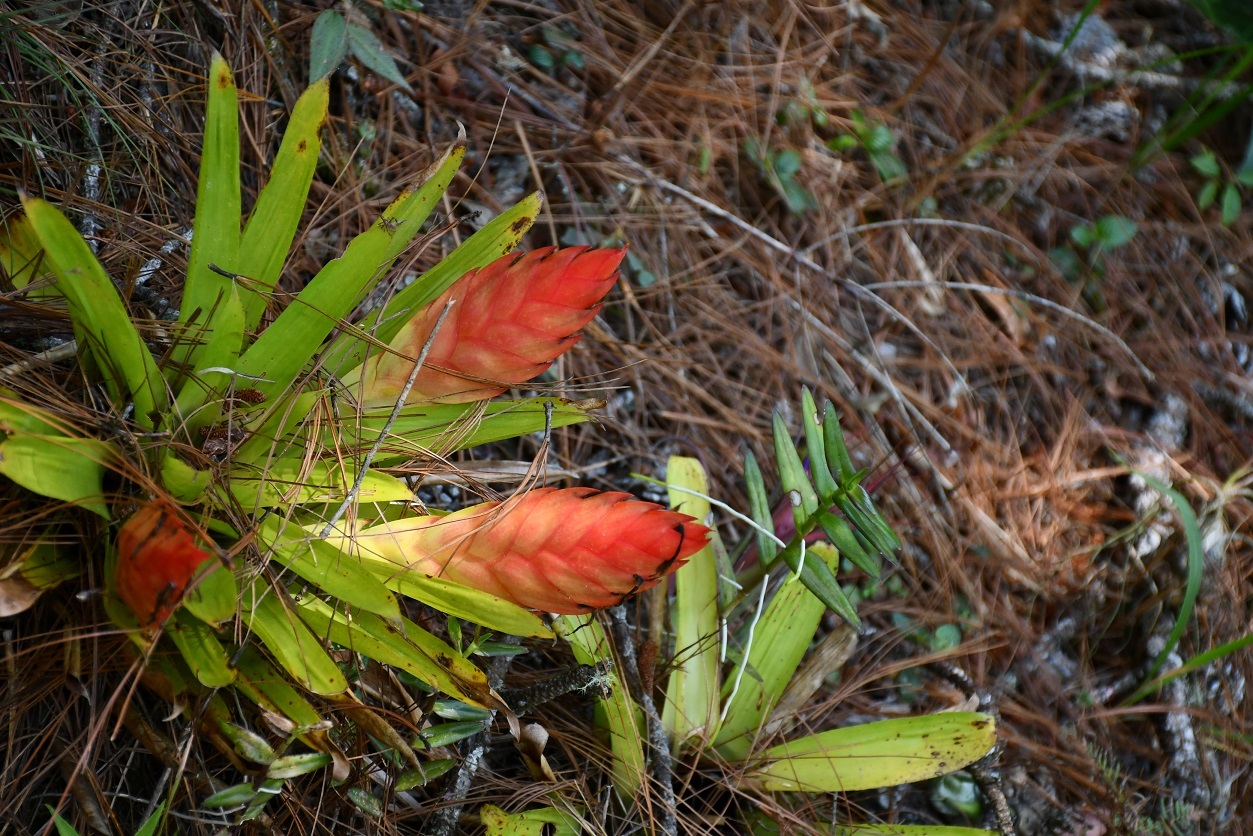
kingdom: Plantae
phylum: Tracheophyta
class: Liliopsida
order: Poales
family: Bromeliaceae
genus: Tillandsia
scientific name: Tillandsia multicaulis
